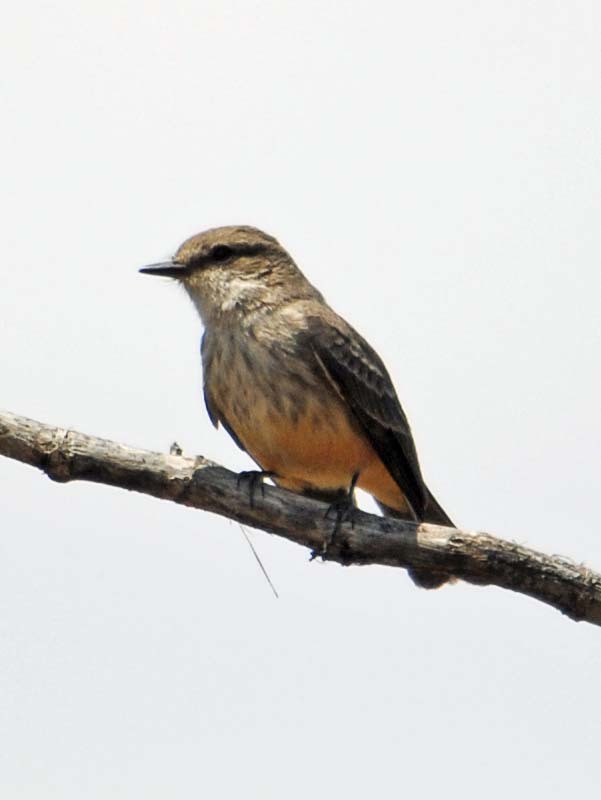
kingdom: Animalia
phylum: Chordata
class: Aves
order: Passeriformes
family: Tyrannidae
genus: Pyrocephalus
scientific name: Pyrocephalus rubinus
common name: Vermilion flycatcher
